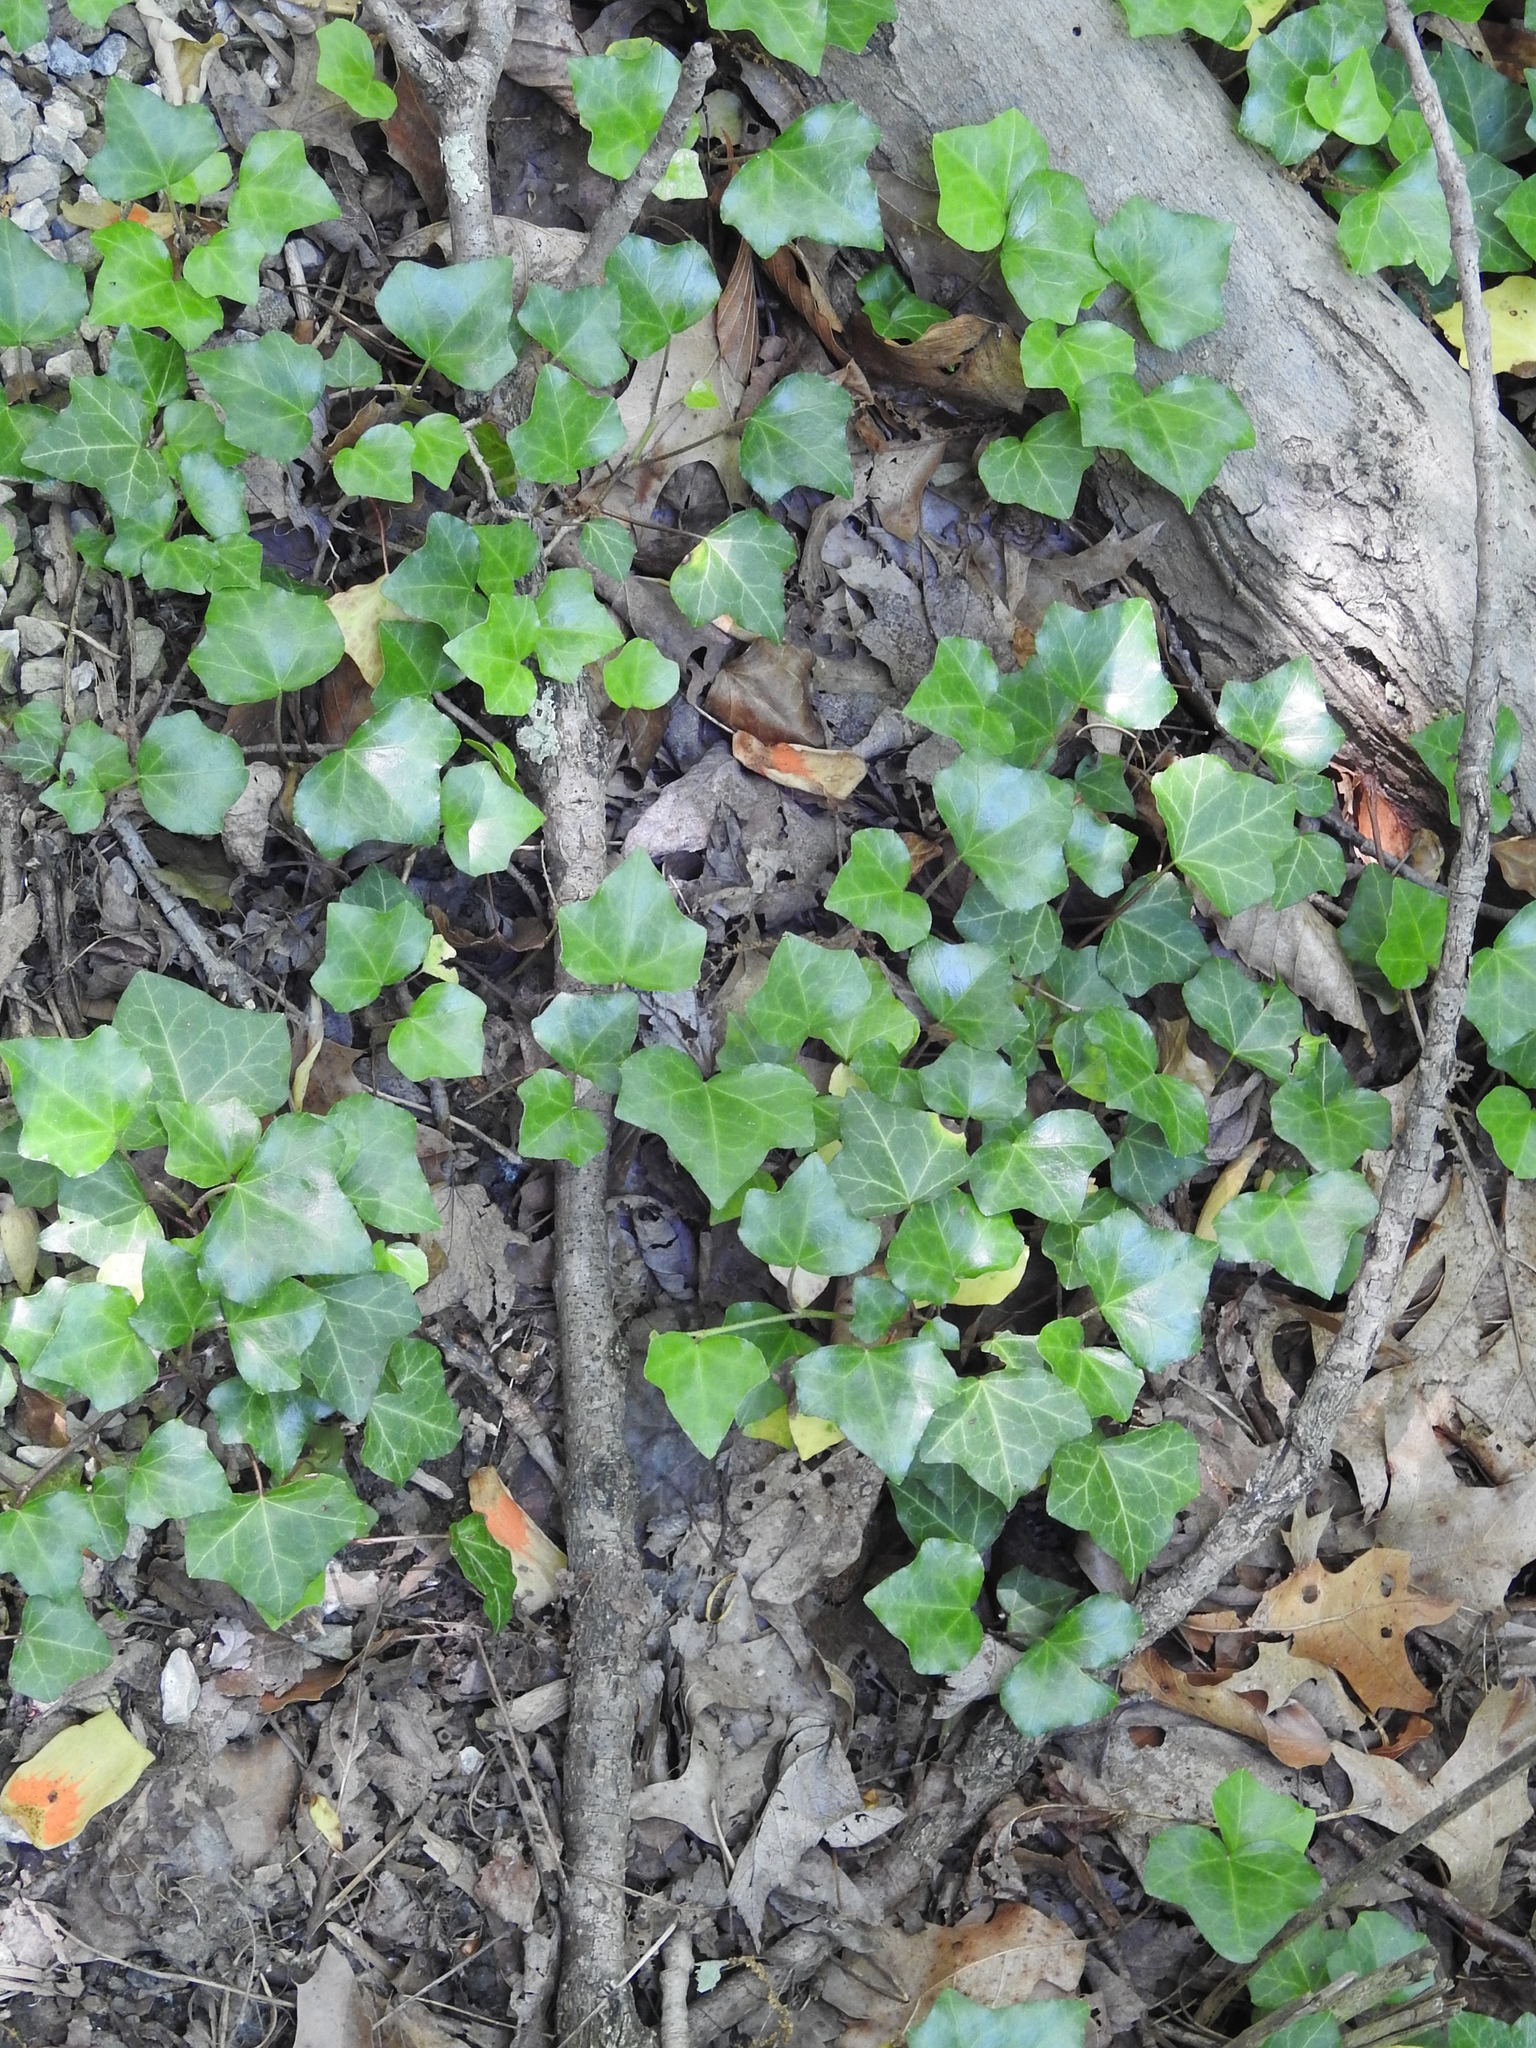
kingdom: Plantae
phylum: Tracheophyta
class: Magnoliopsida
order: Apiales
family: Araliaceae
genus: Hedera
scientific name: Hedera helix
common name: Ivy
